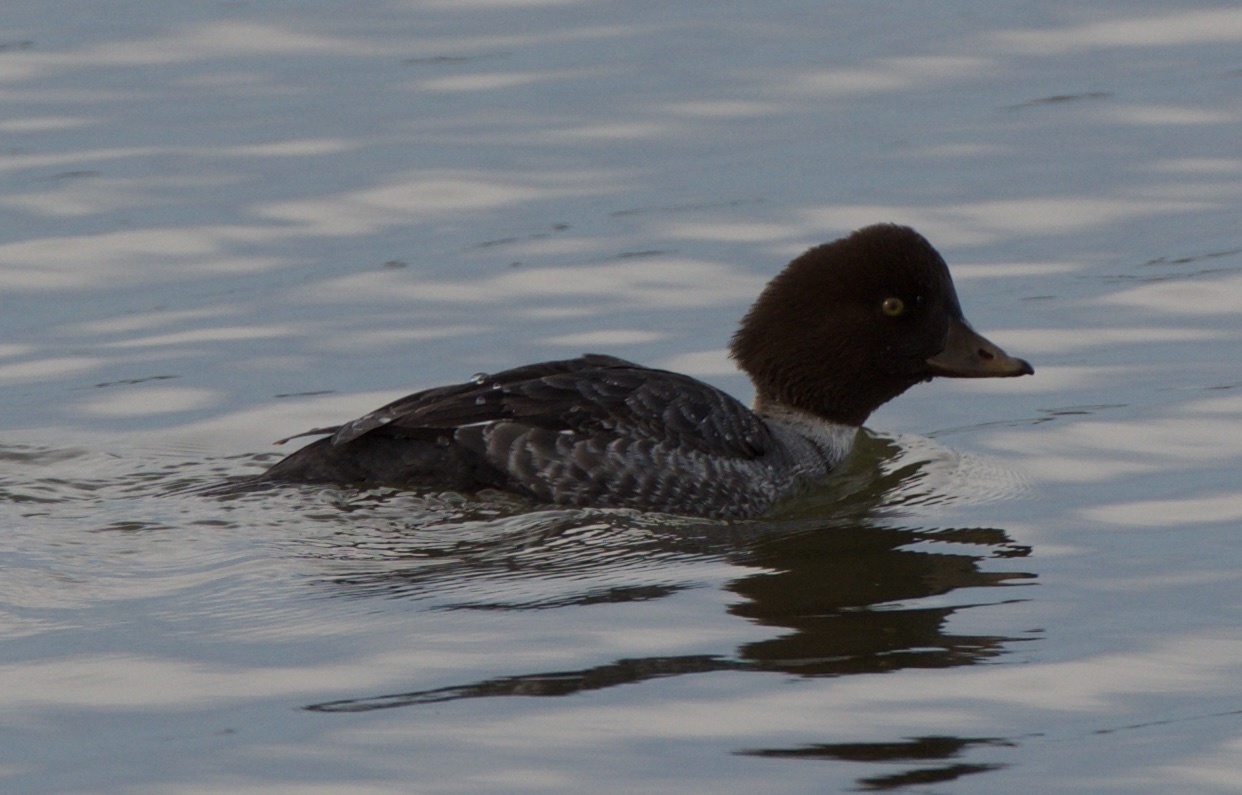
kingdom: Animalia
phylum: Chordata
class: Aves
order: Anseriformes
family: Anatidae
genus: Bucephala
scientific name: Bucephala clangula
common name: Common goldeneye
